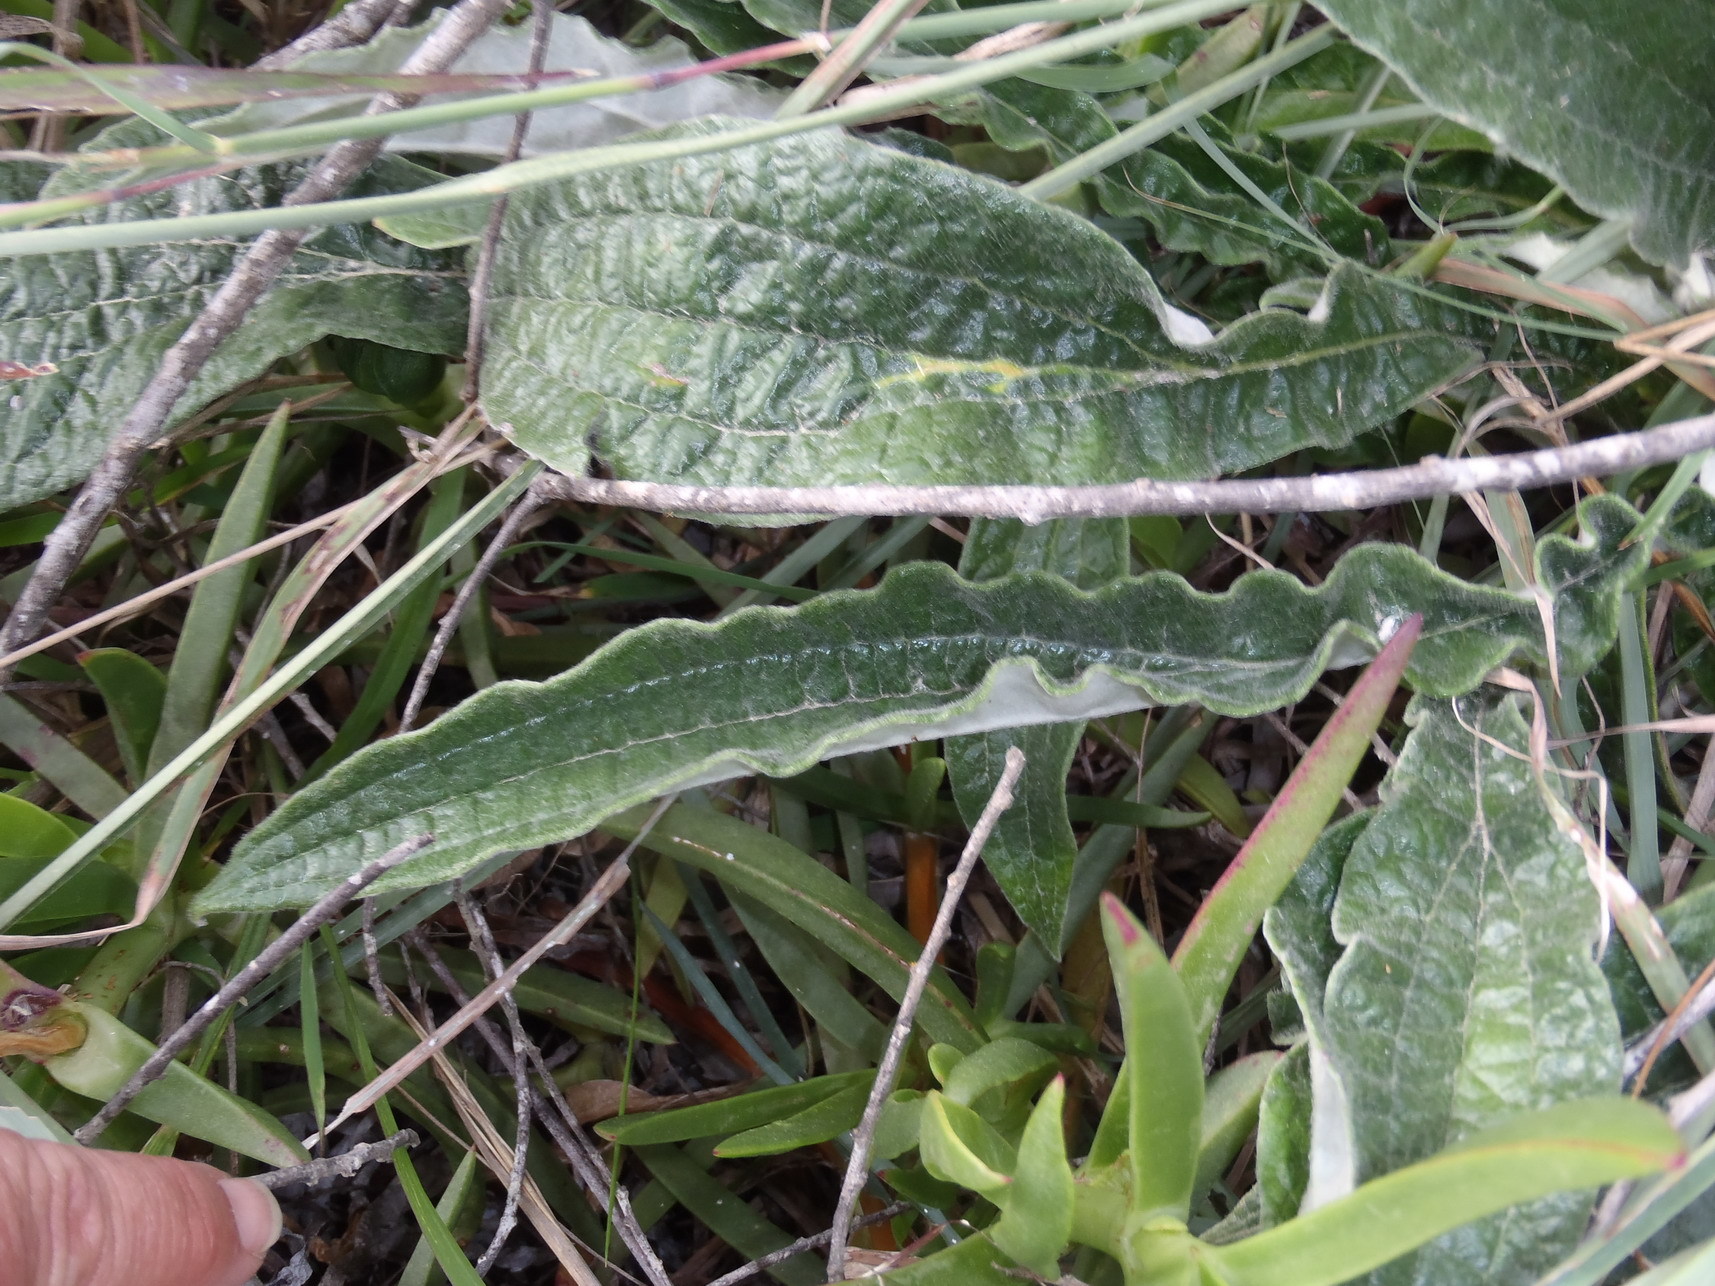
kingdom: Plantae
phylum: Tracheophyta
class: Magnoliopsida
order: Asterales
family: Asteraceae
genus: Helichrysum
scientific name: Helichrysum nudifolium
